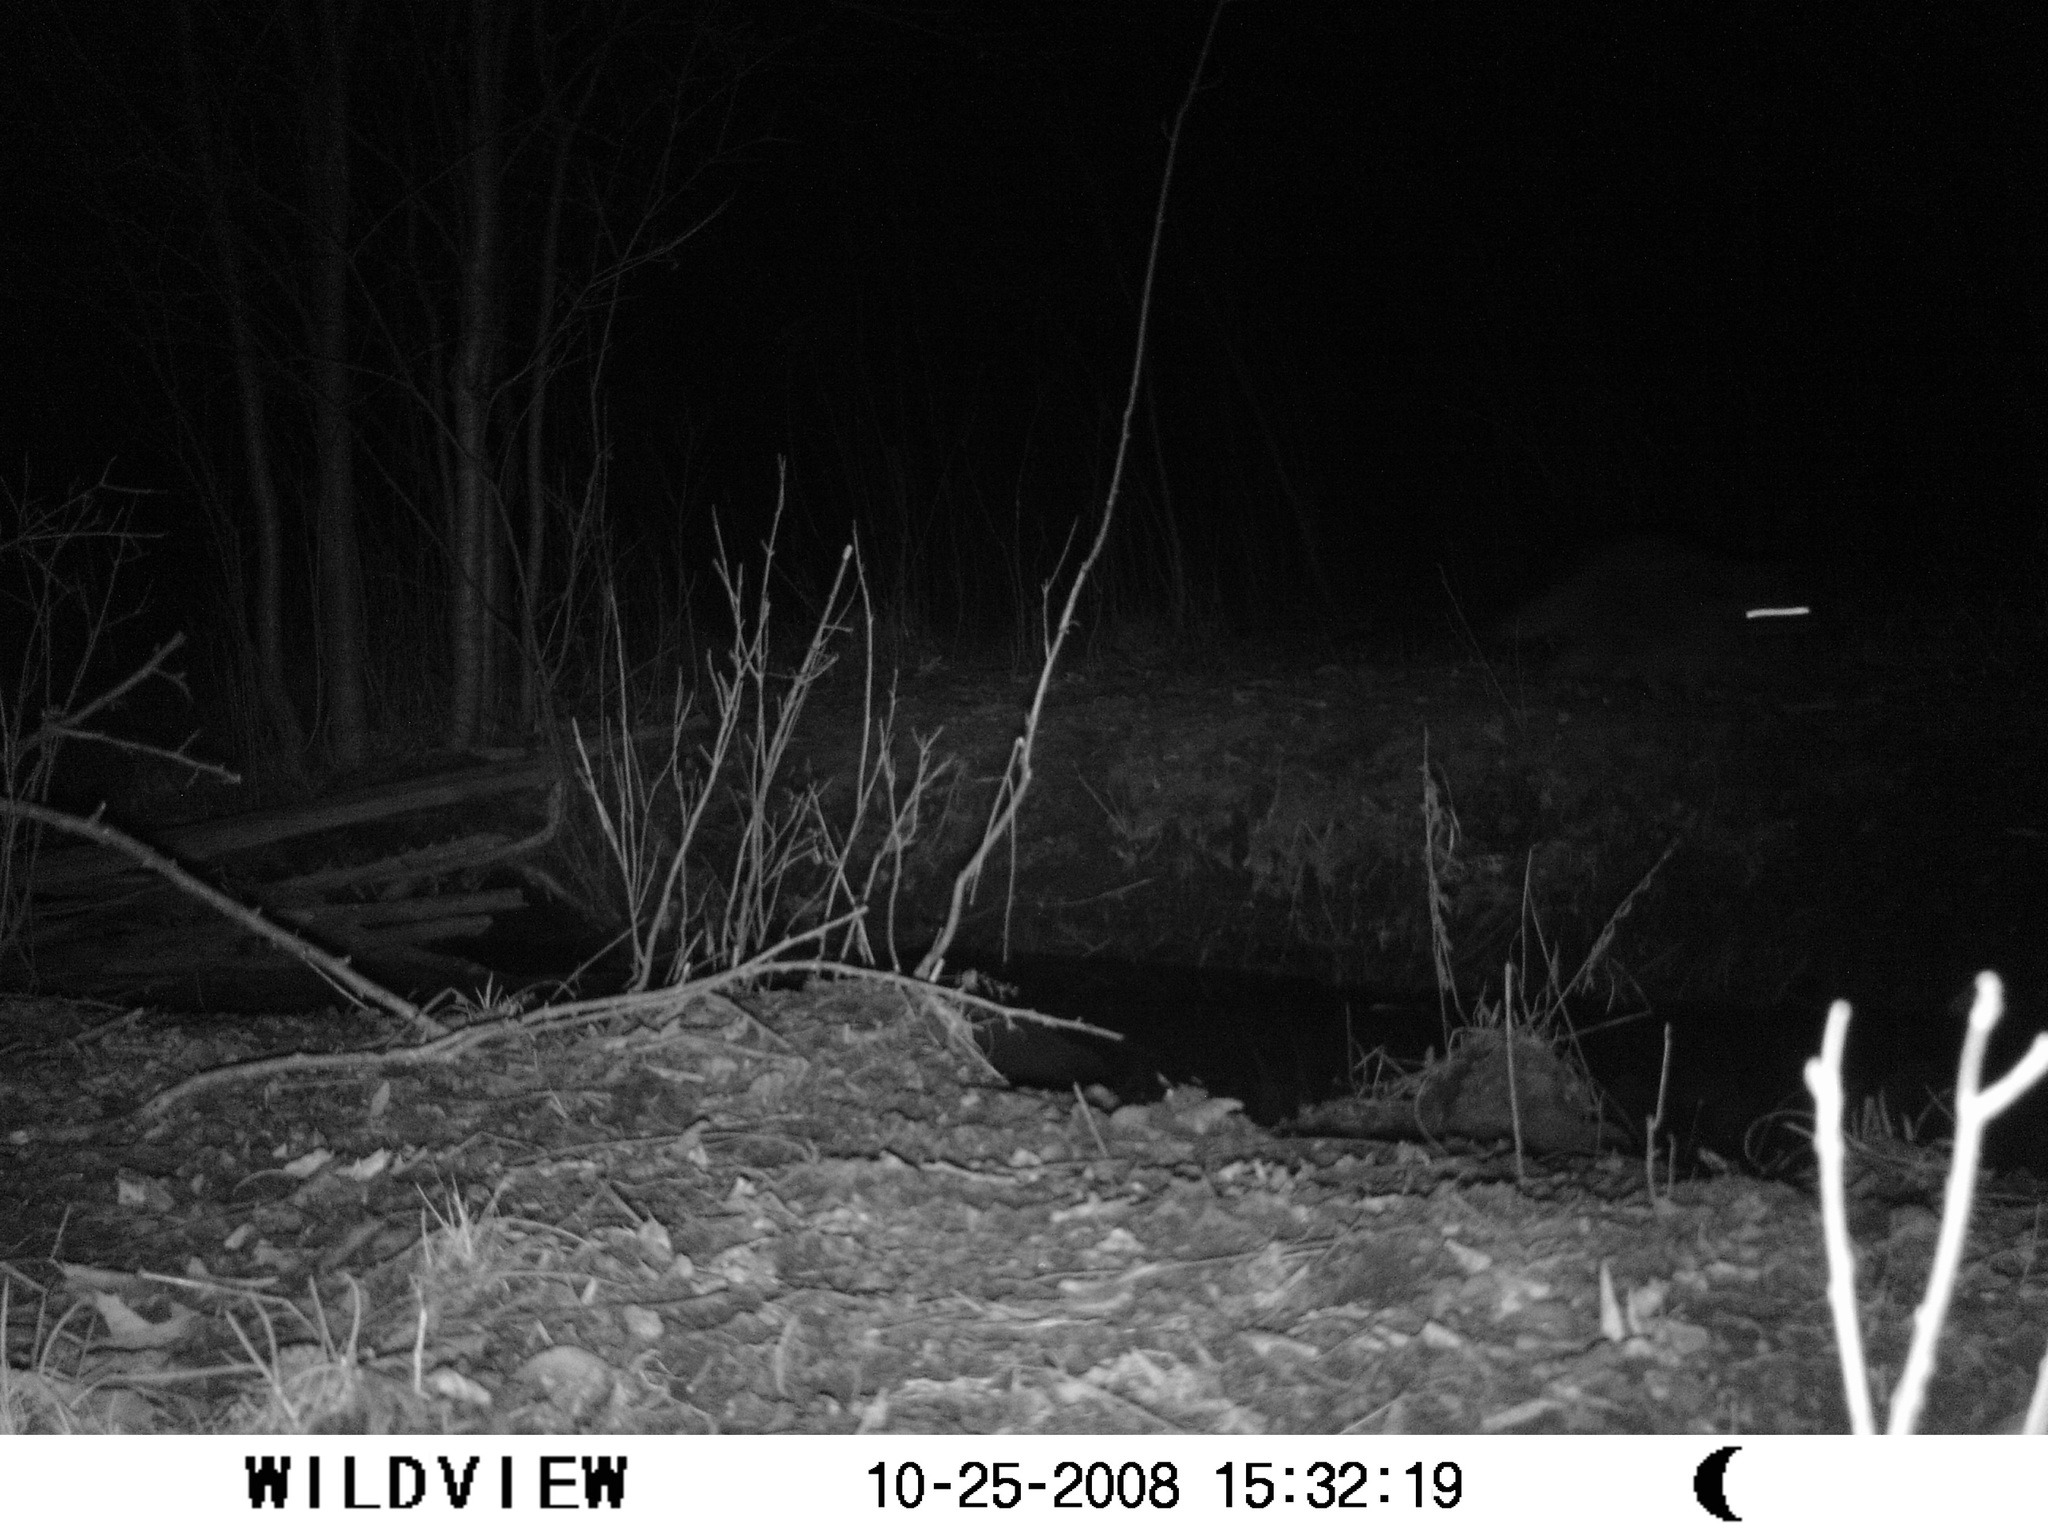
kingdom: Animalia
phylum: Chordata
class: Mammalia
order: Carnivora
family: Procyonidae
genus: Procyon
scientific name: Procyon lotor
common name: Raccoon
